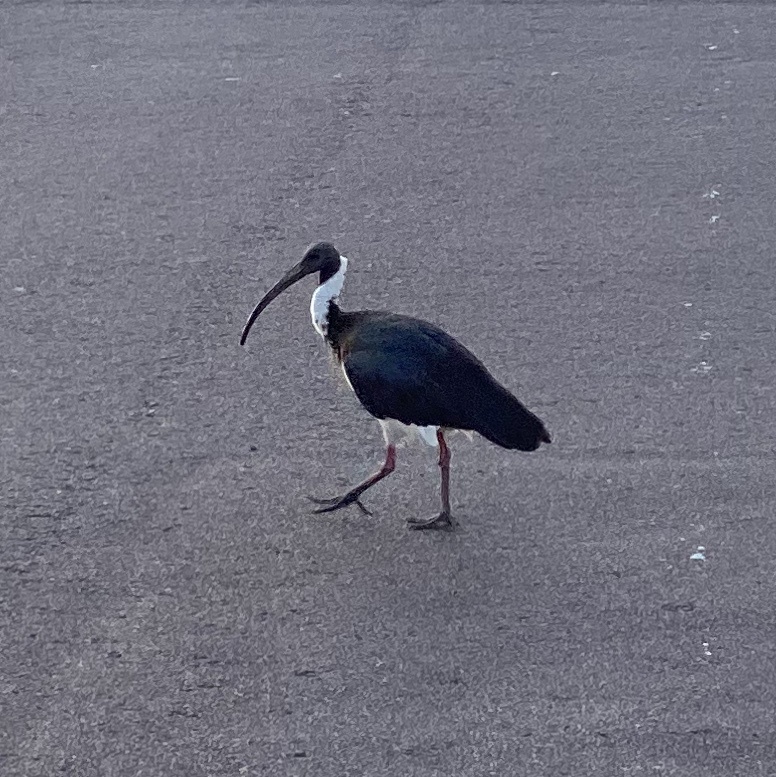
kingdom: Animalia
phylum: Chordata
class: Aves
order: Pelecaniformes
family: Threskiornithidae
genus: Threskiornis
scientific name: Threskiornis spinicollis
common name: Straw-necked ibis
